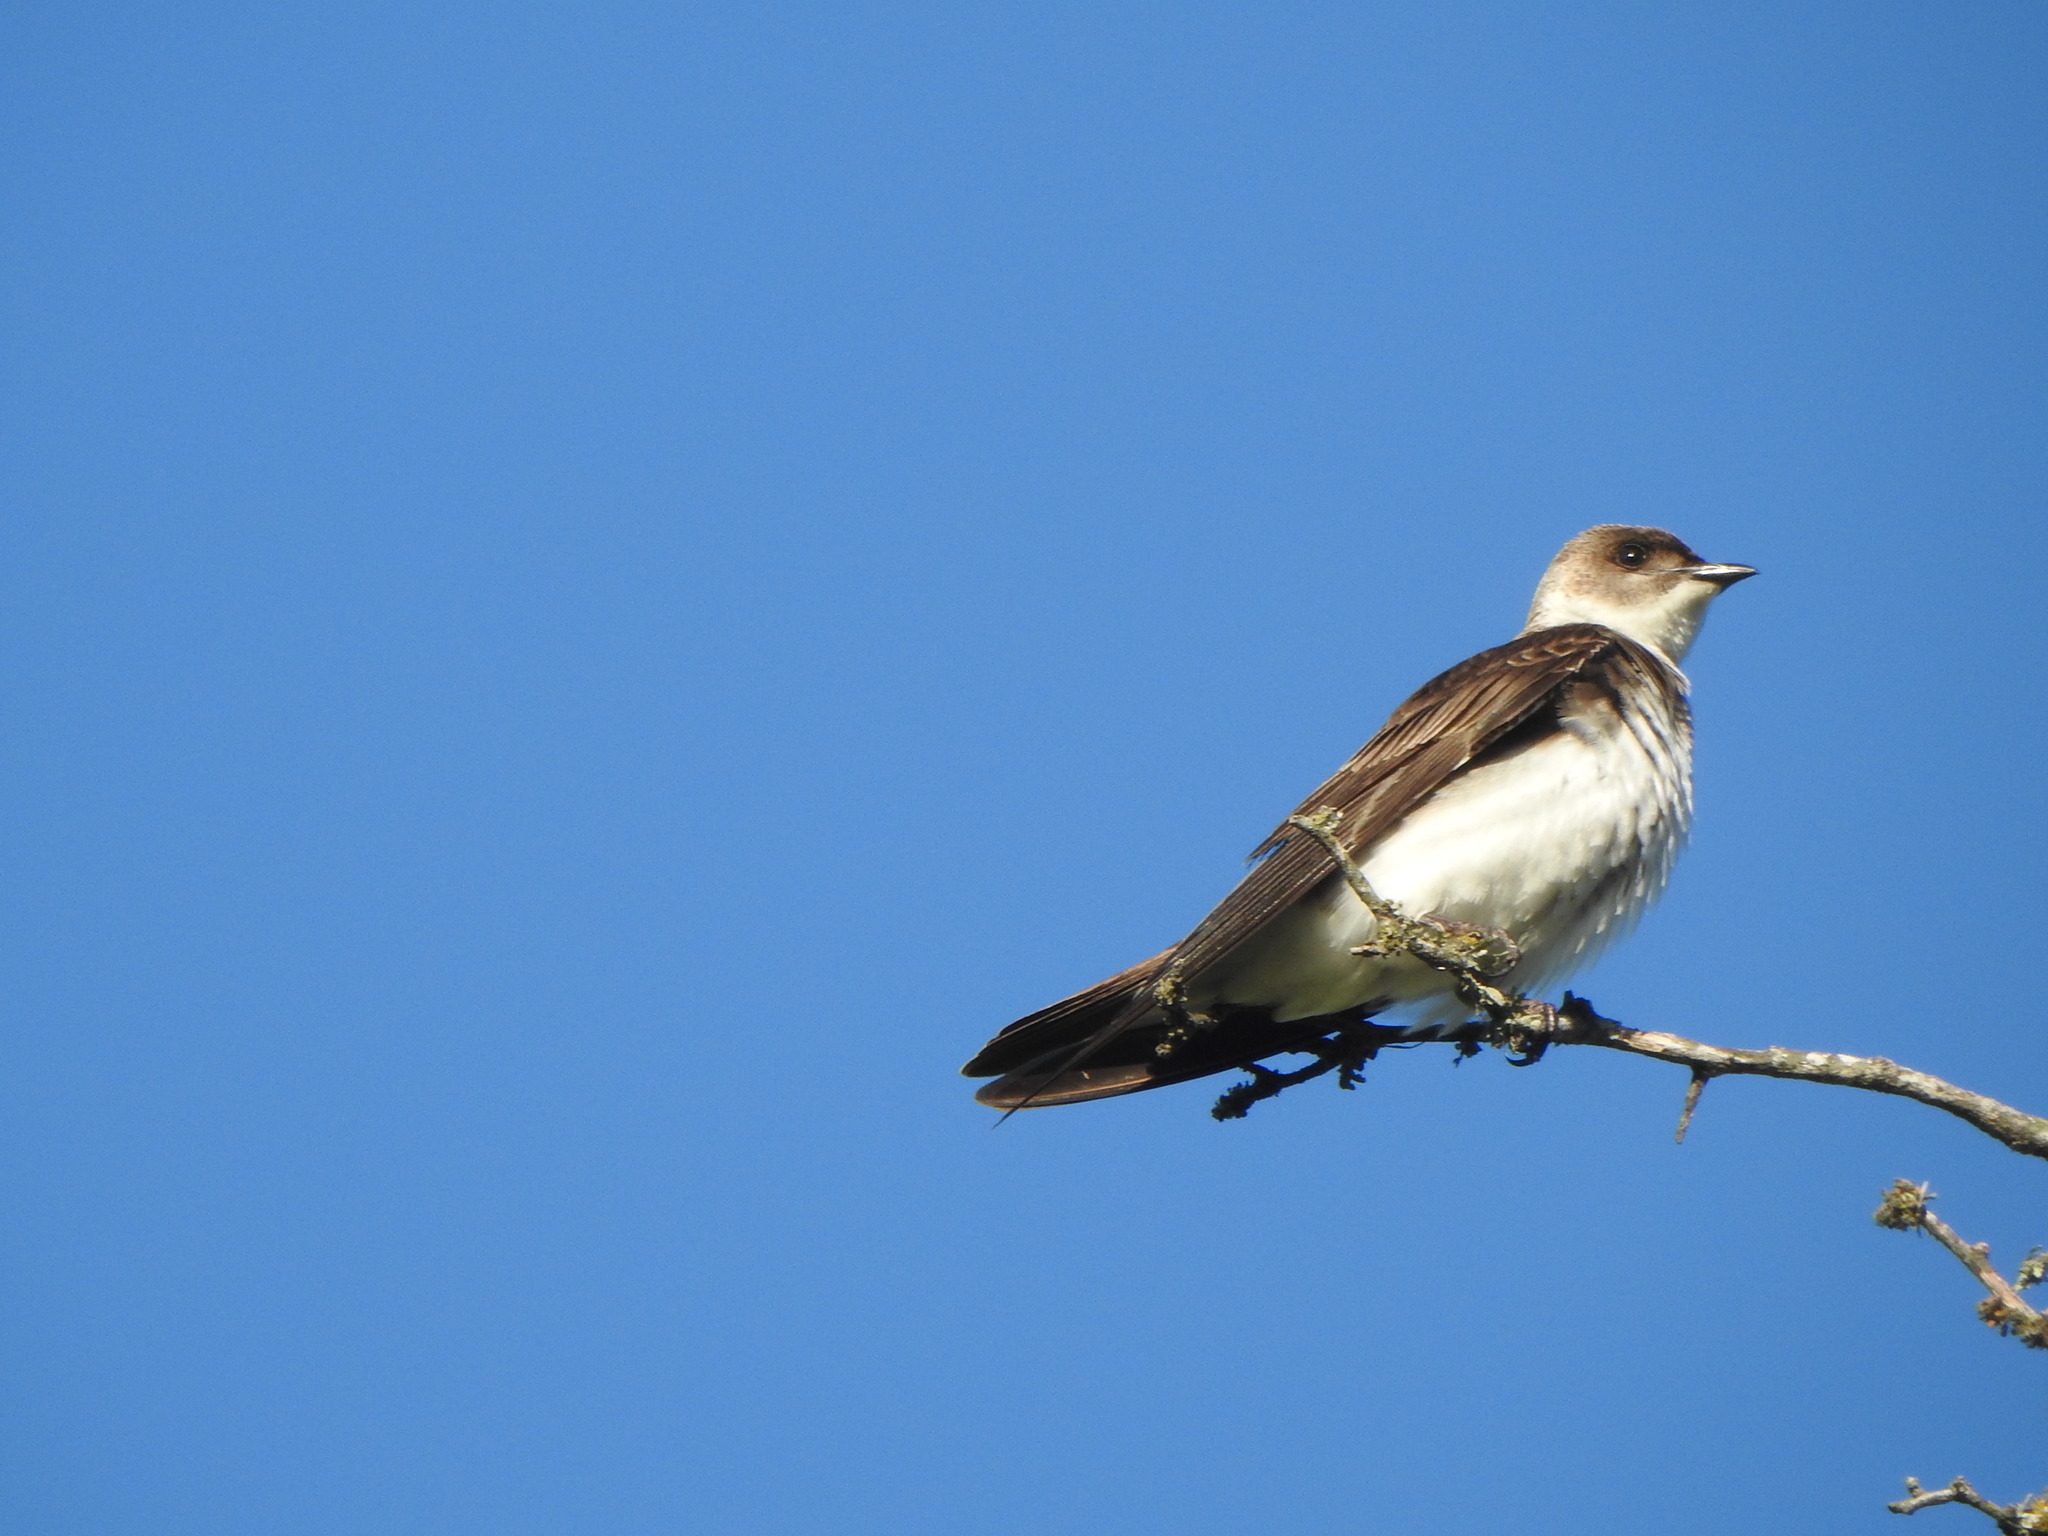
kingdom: Animalia
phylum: Chordata
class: Aves
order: Passeriformes
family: Hirundinidae
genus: Progne
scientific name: Progne tapera
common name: Brown-chested martin
